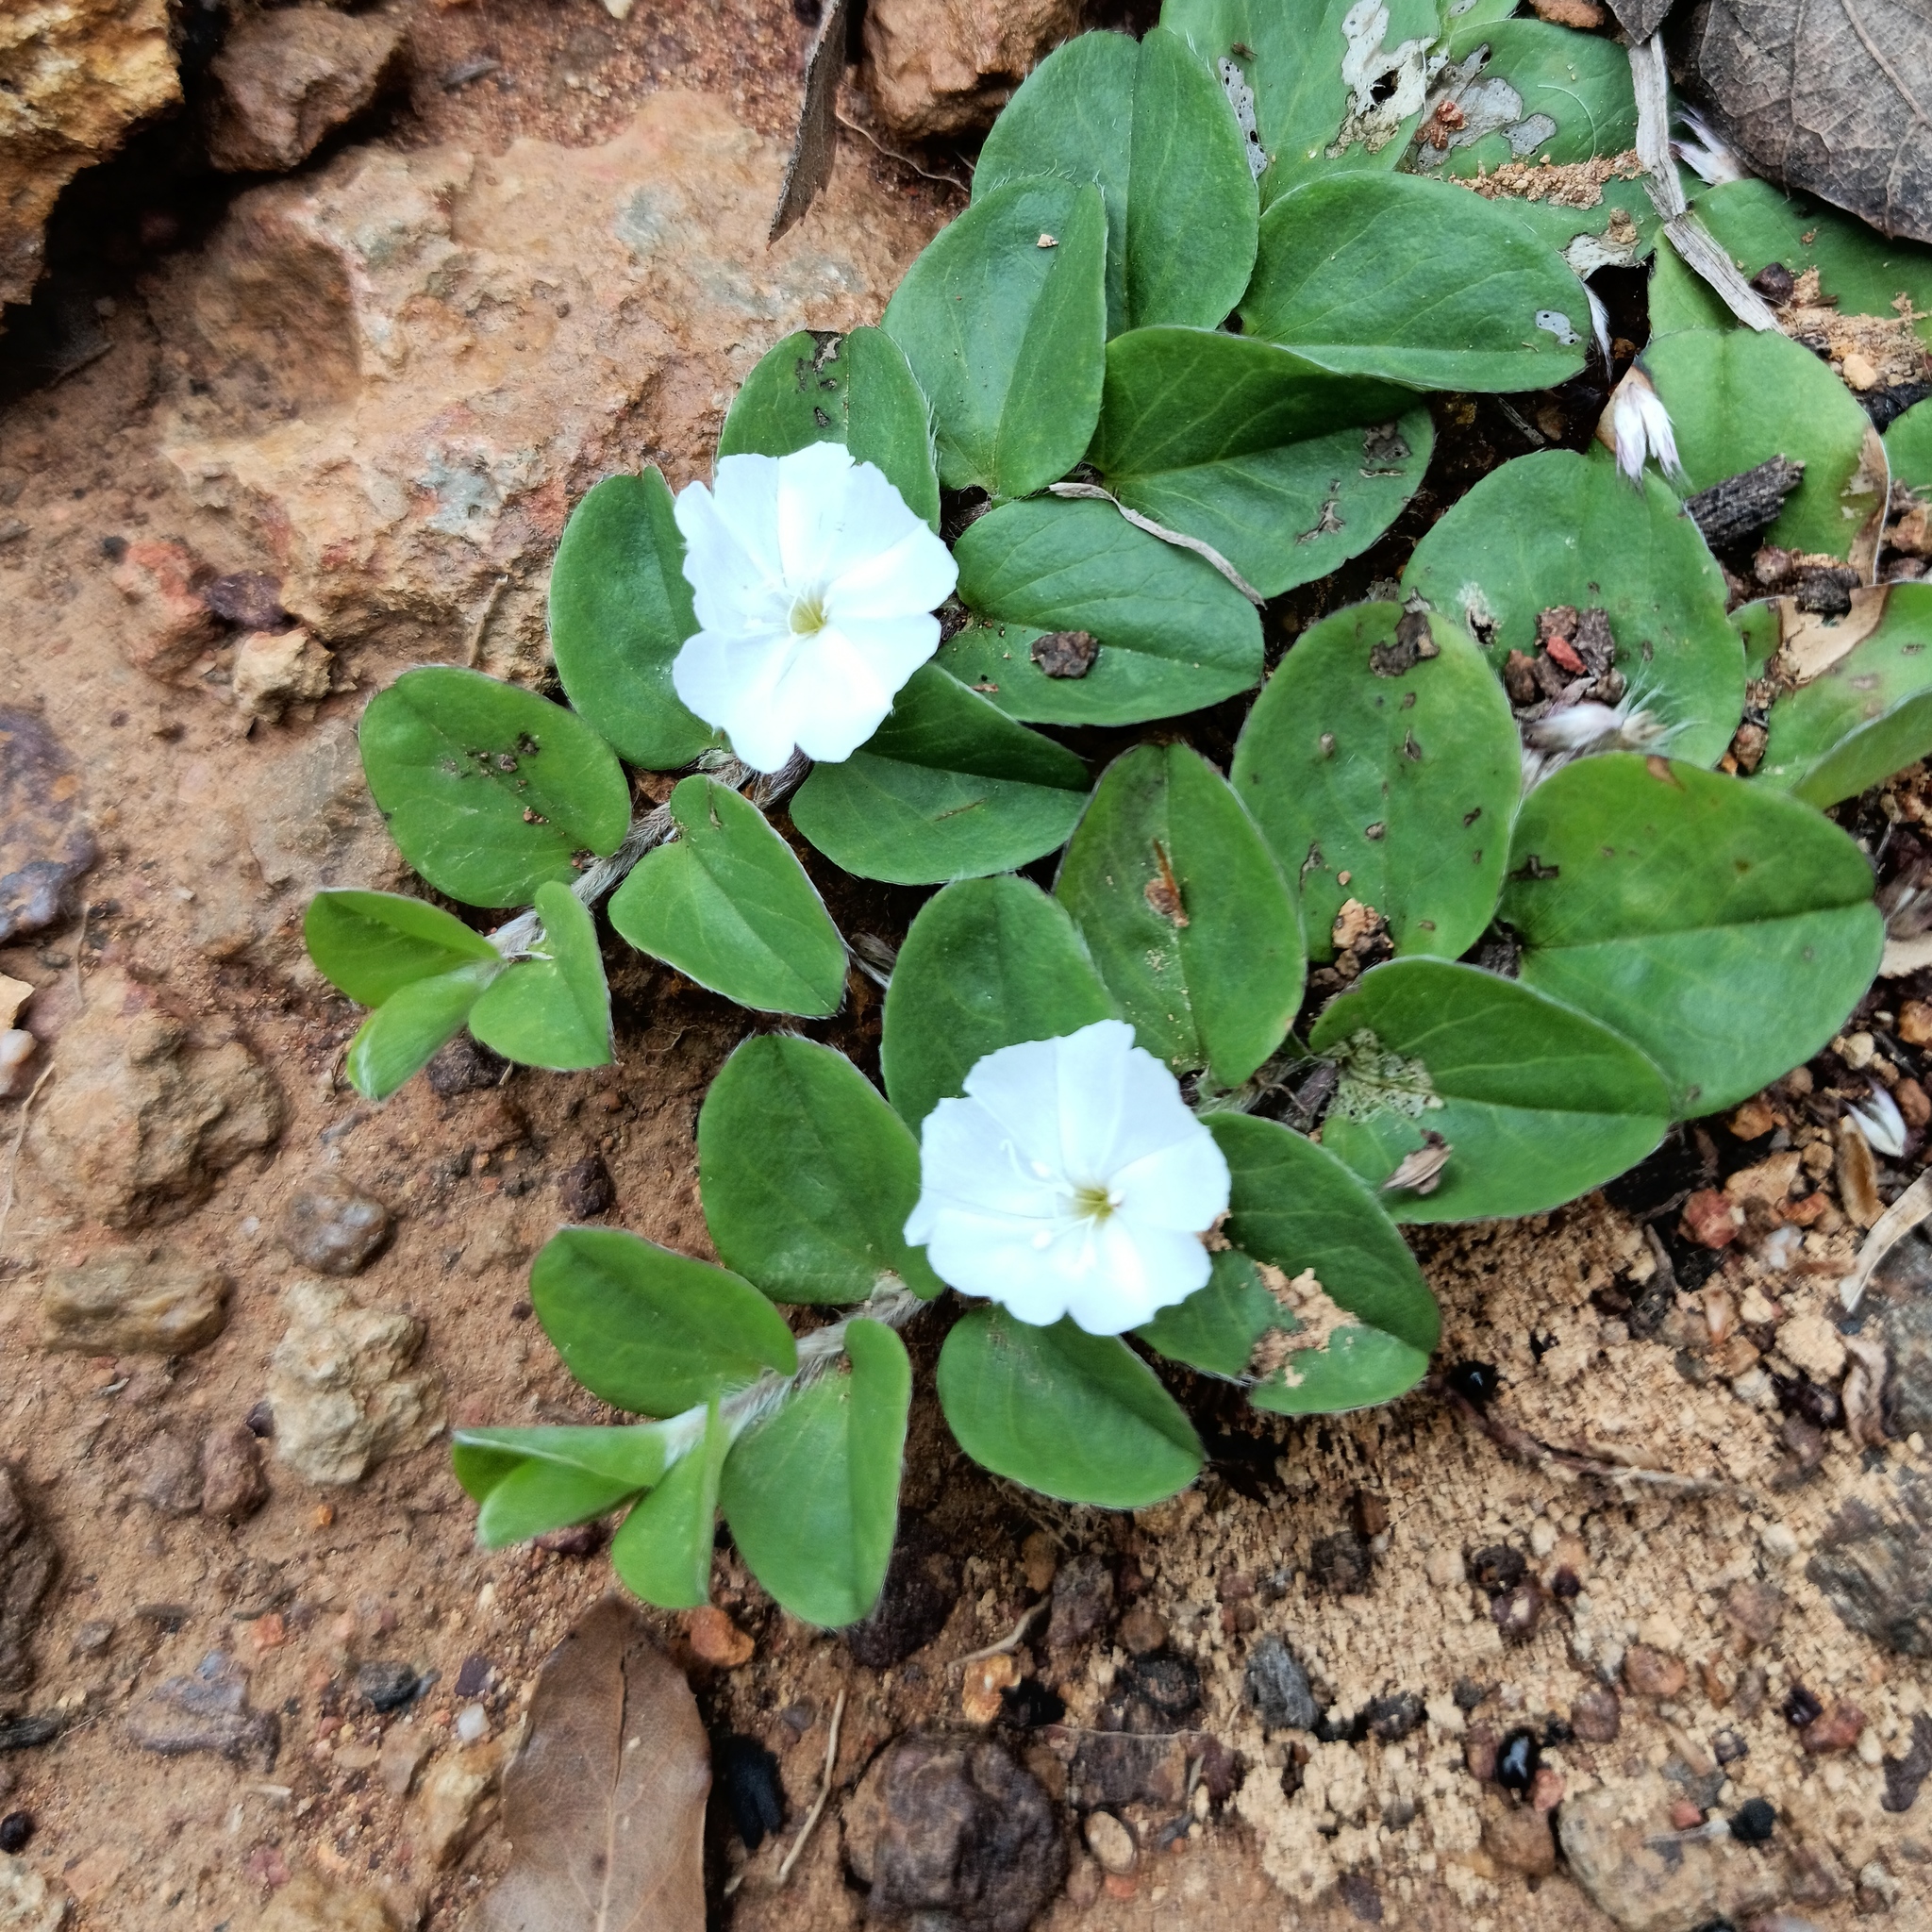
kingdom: Plantae
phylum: Tracheophyta
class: Magnoliopsida
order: Solanales
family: Convolvulaceae
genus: Evolvulus
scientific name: Evolvulus prostratus
